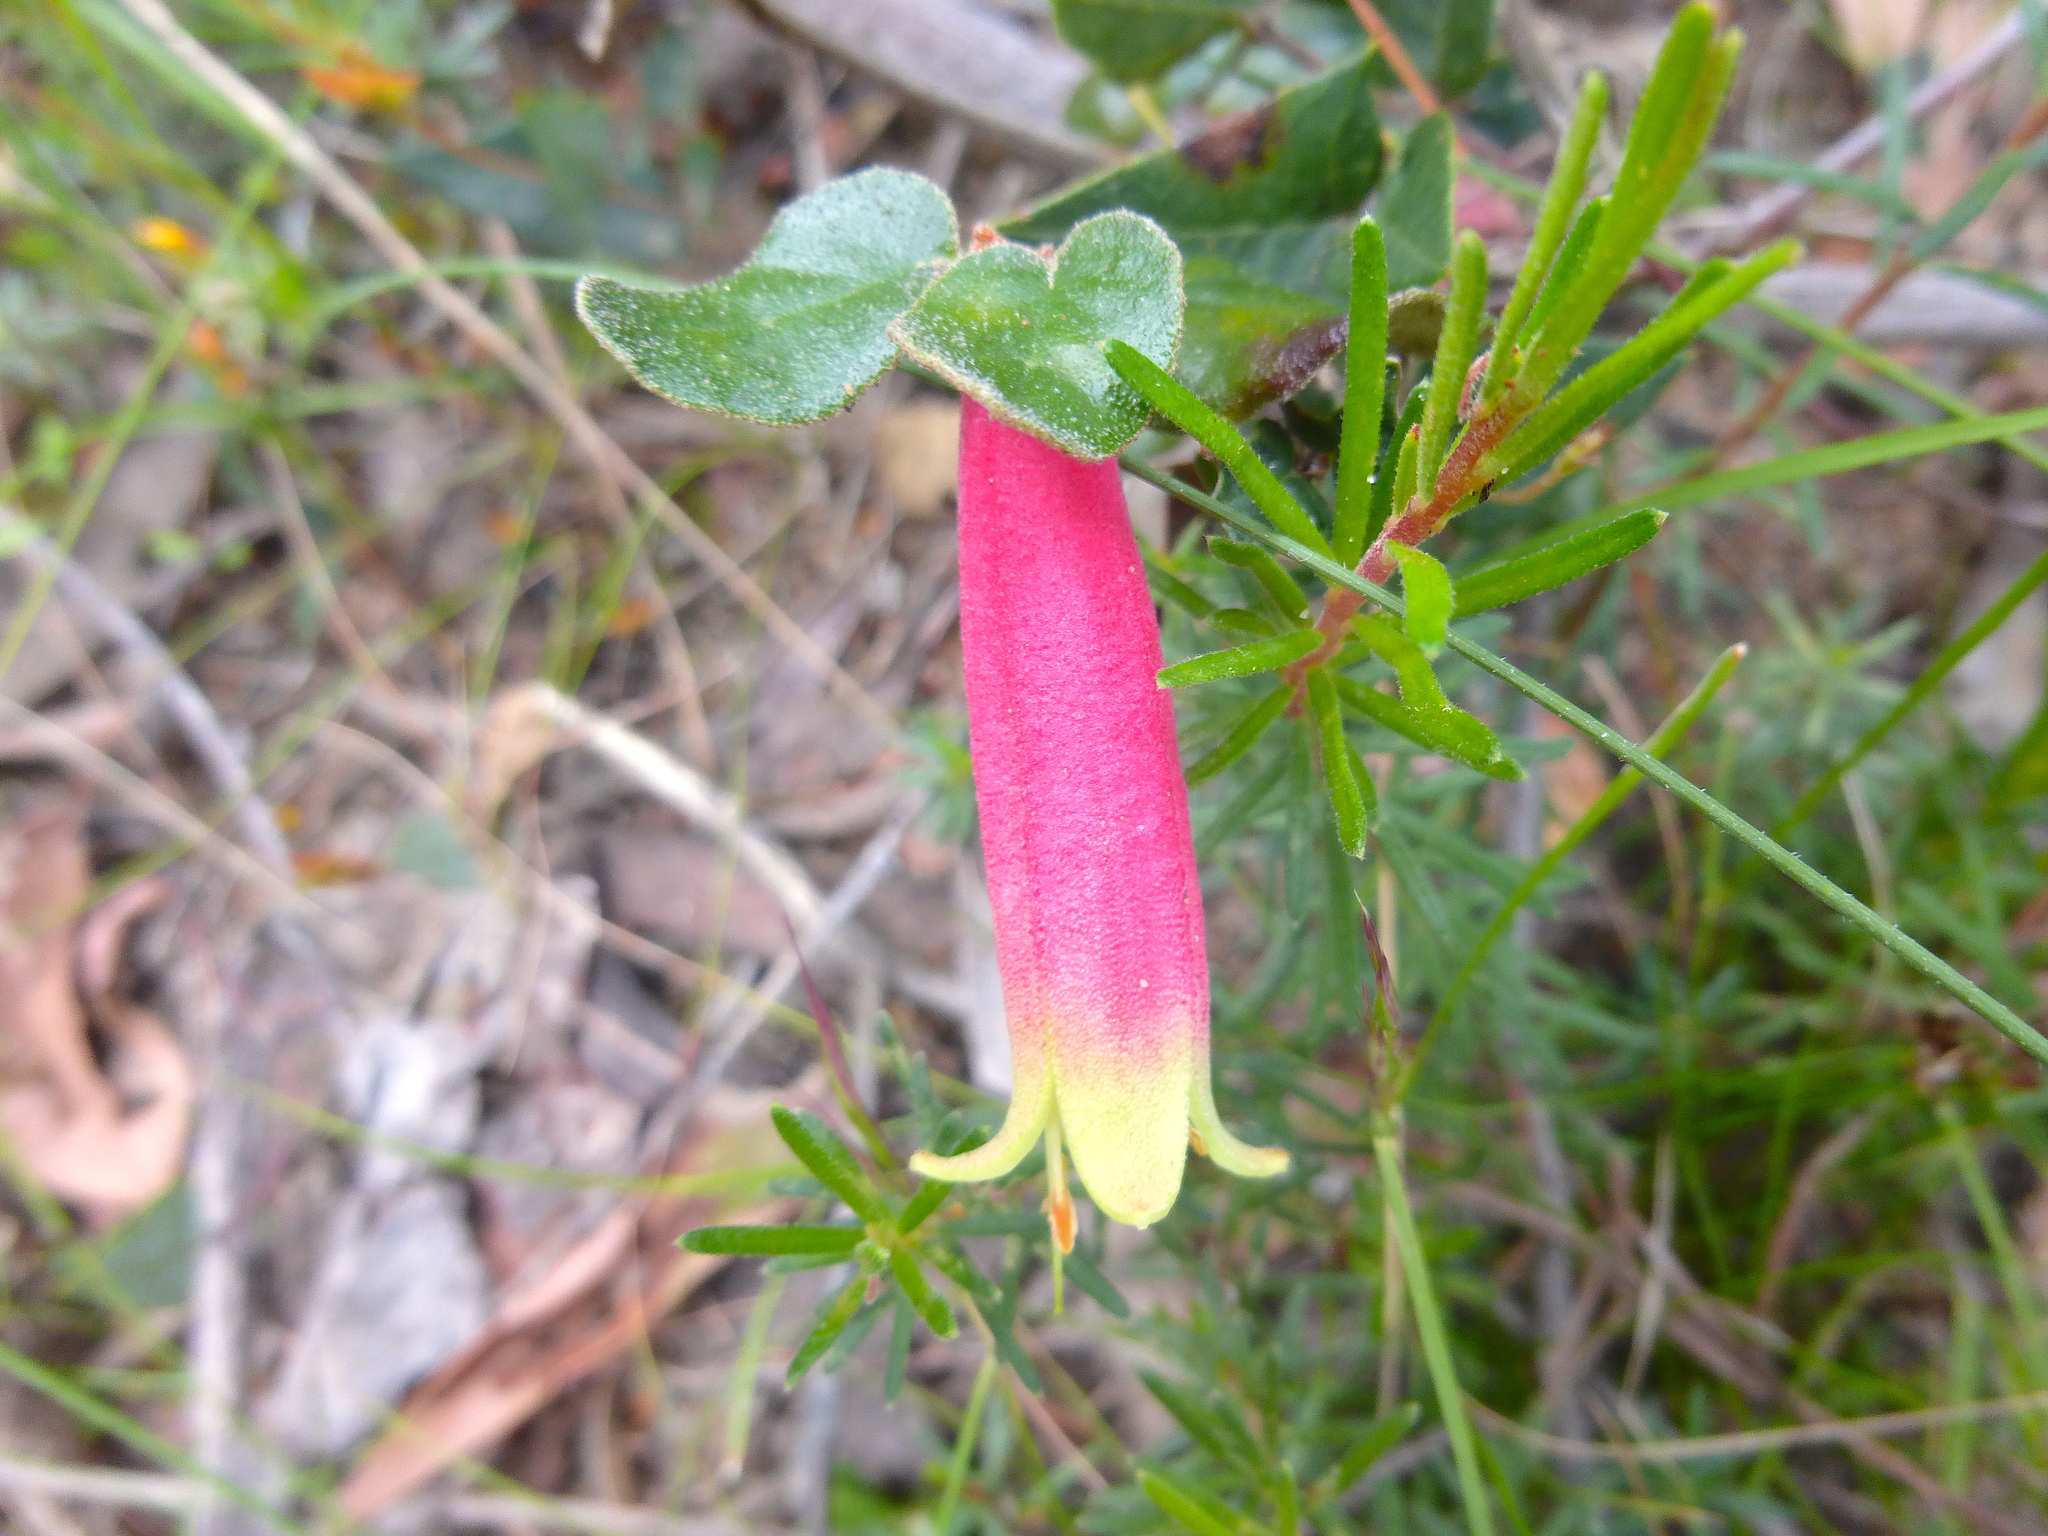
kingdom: Plantae
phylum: Tracheophyta
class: Magnoliopsida
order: Sapindales
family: Rutaceae
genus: Correa
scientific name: Correa reflexa
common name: Common correa
